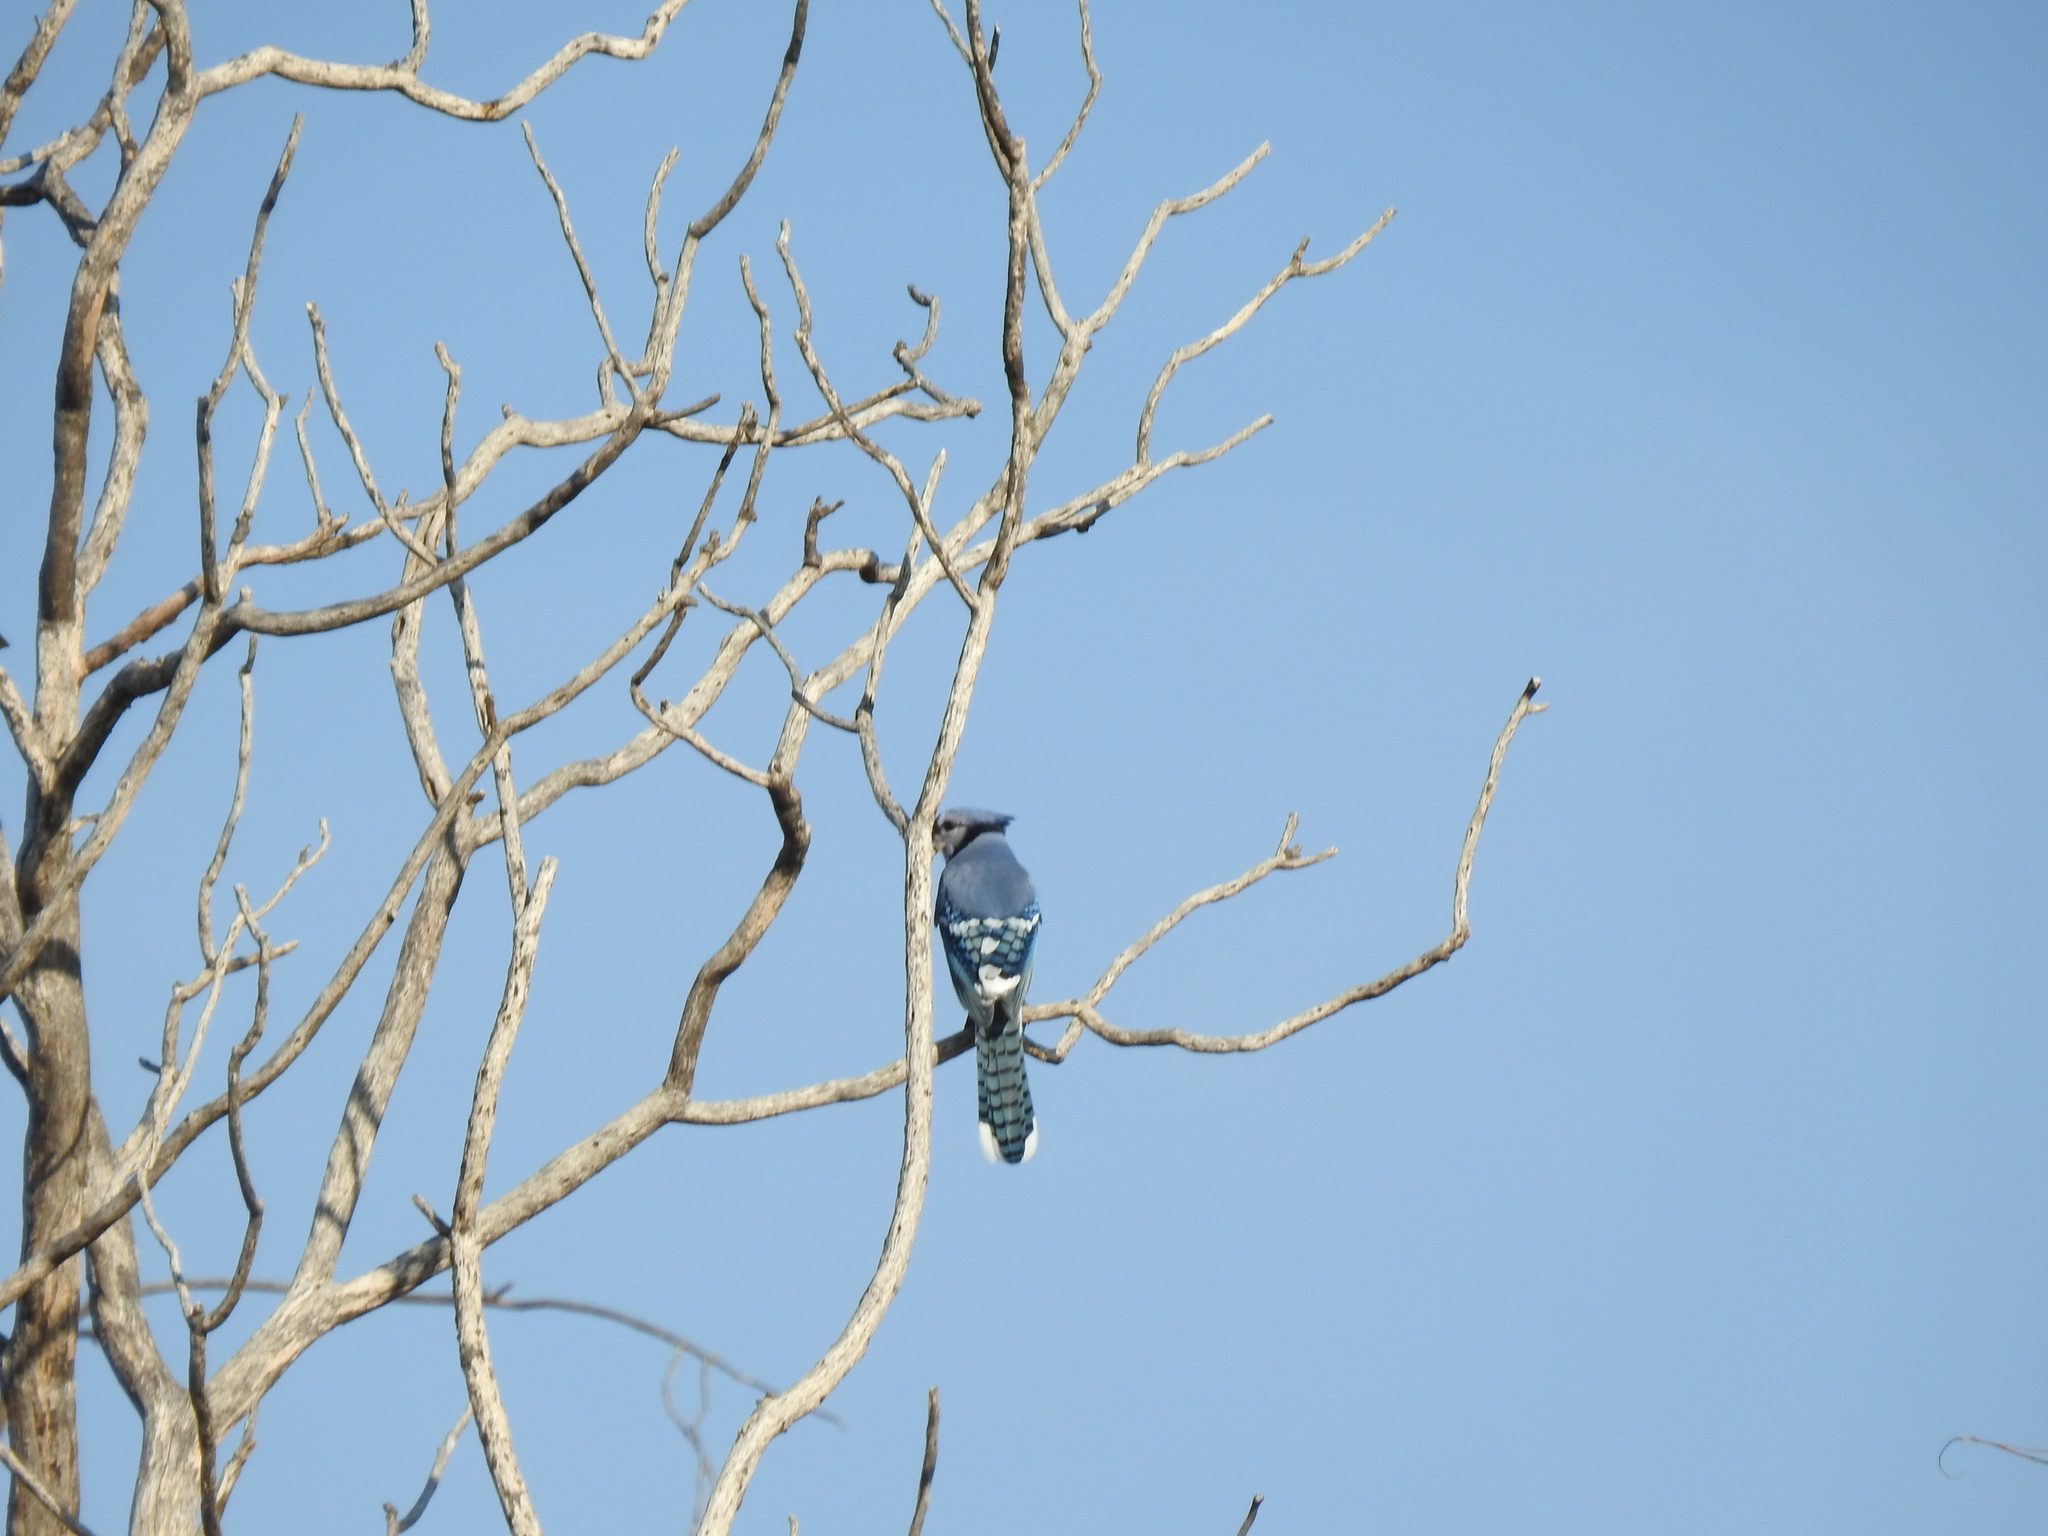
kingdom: Animalia
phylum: Chordata
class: Aves
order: Passeriformes
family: Corvidae
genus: Cyanocitta
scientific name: Cyanocitta cristata
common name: Blue jay
